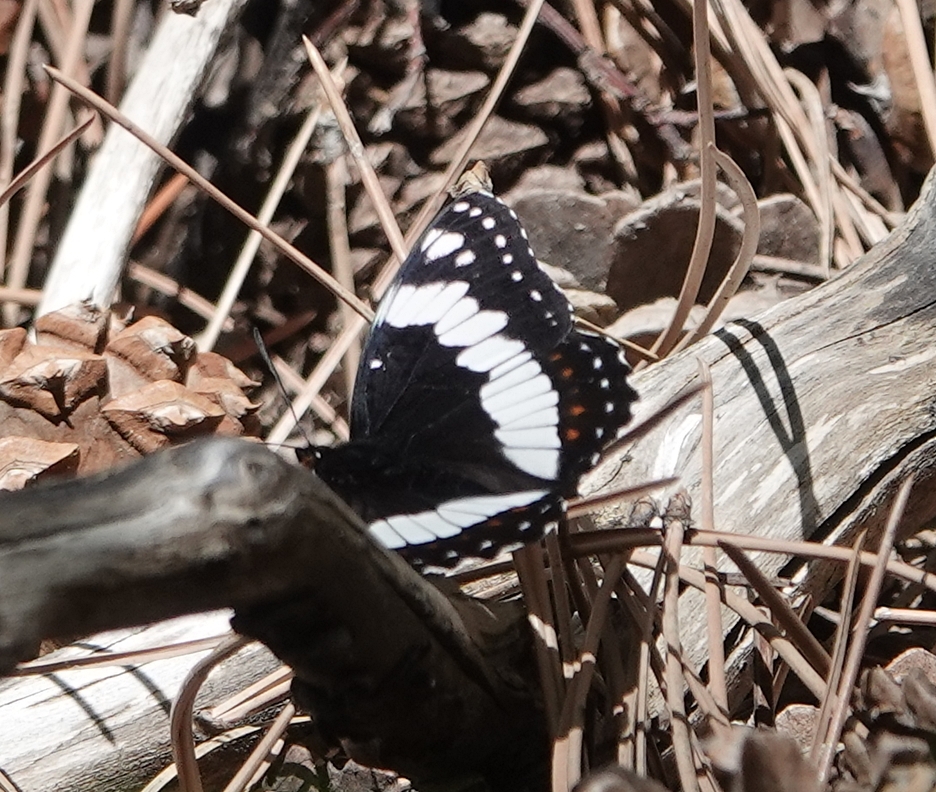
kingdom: Animalia
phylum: Arthropoda
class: Insecta
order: Lepidoptera
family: Nymphalidae
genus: Limenitis
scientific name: Limenitis weidemeyerii
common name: Weidemeyer's admiral
